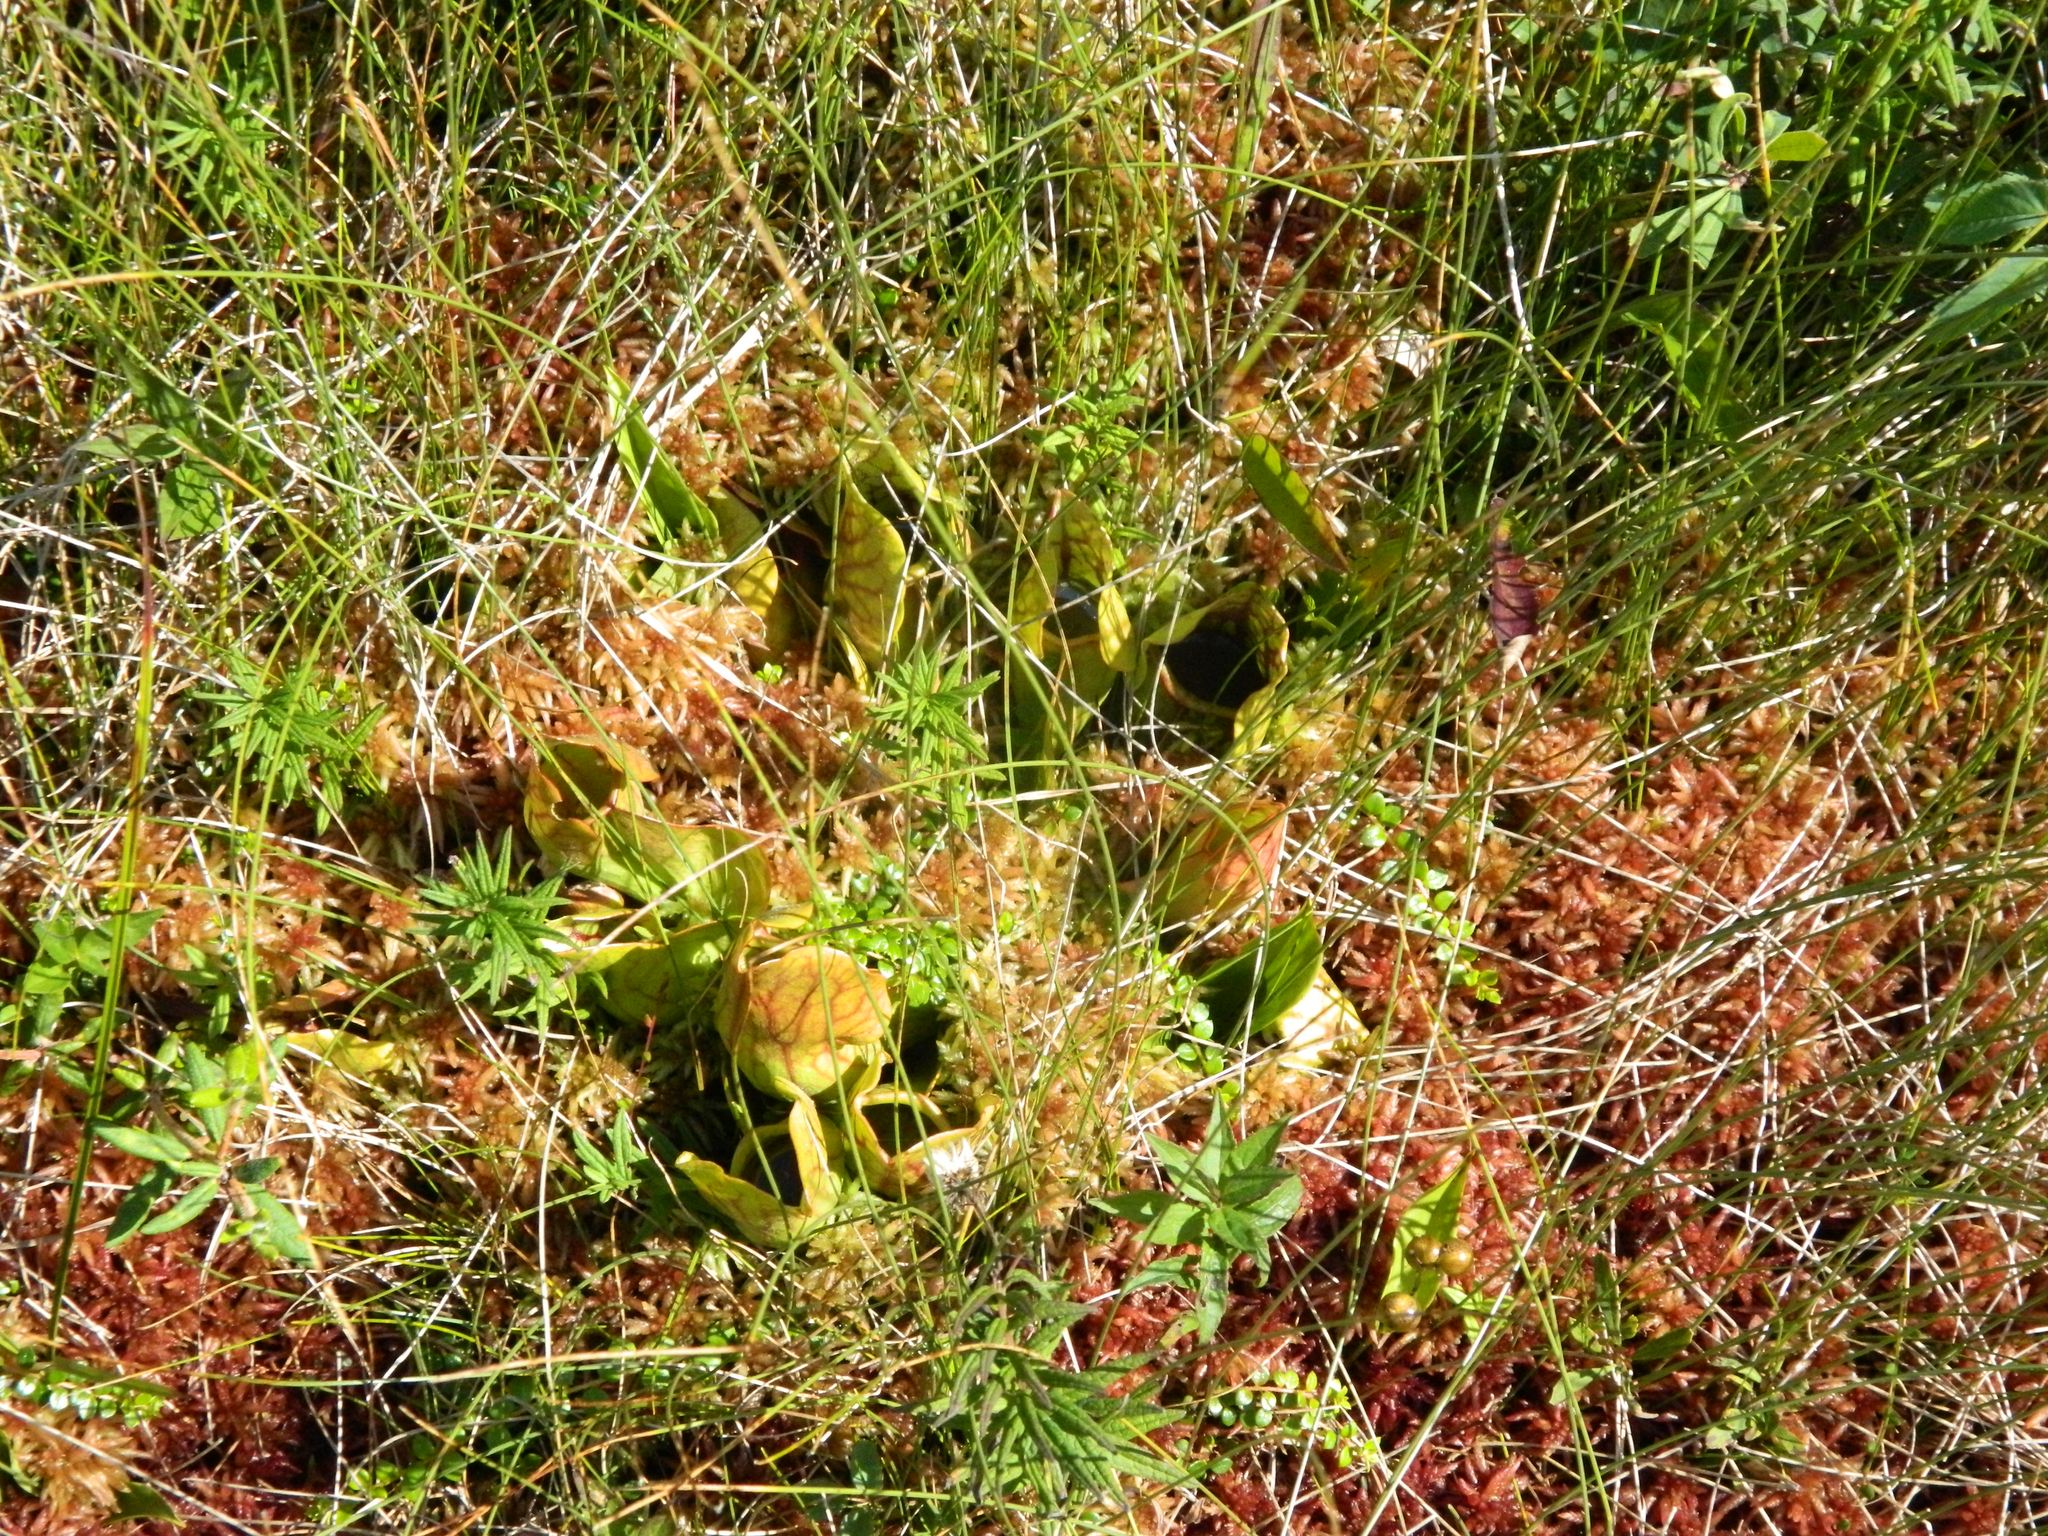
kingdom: Plantae
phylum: Tracheophyta
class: Magnoliopsida
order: Ericales
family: Sarraceniaceae
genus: Sarracenia
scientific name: Sarracenia purpurea
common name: Pitcherplant
